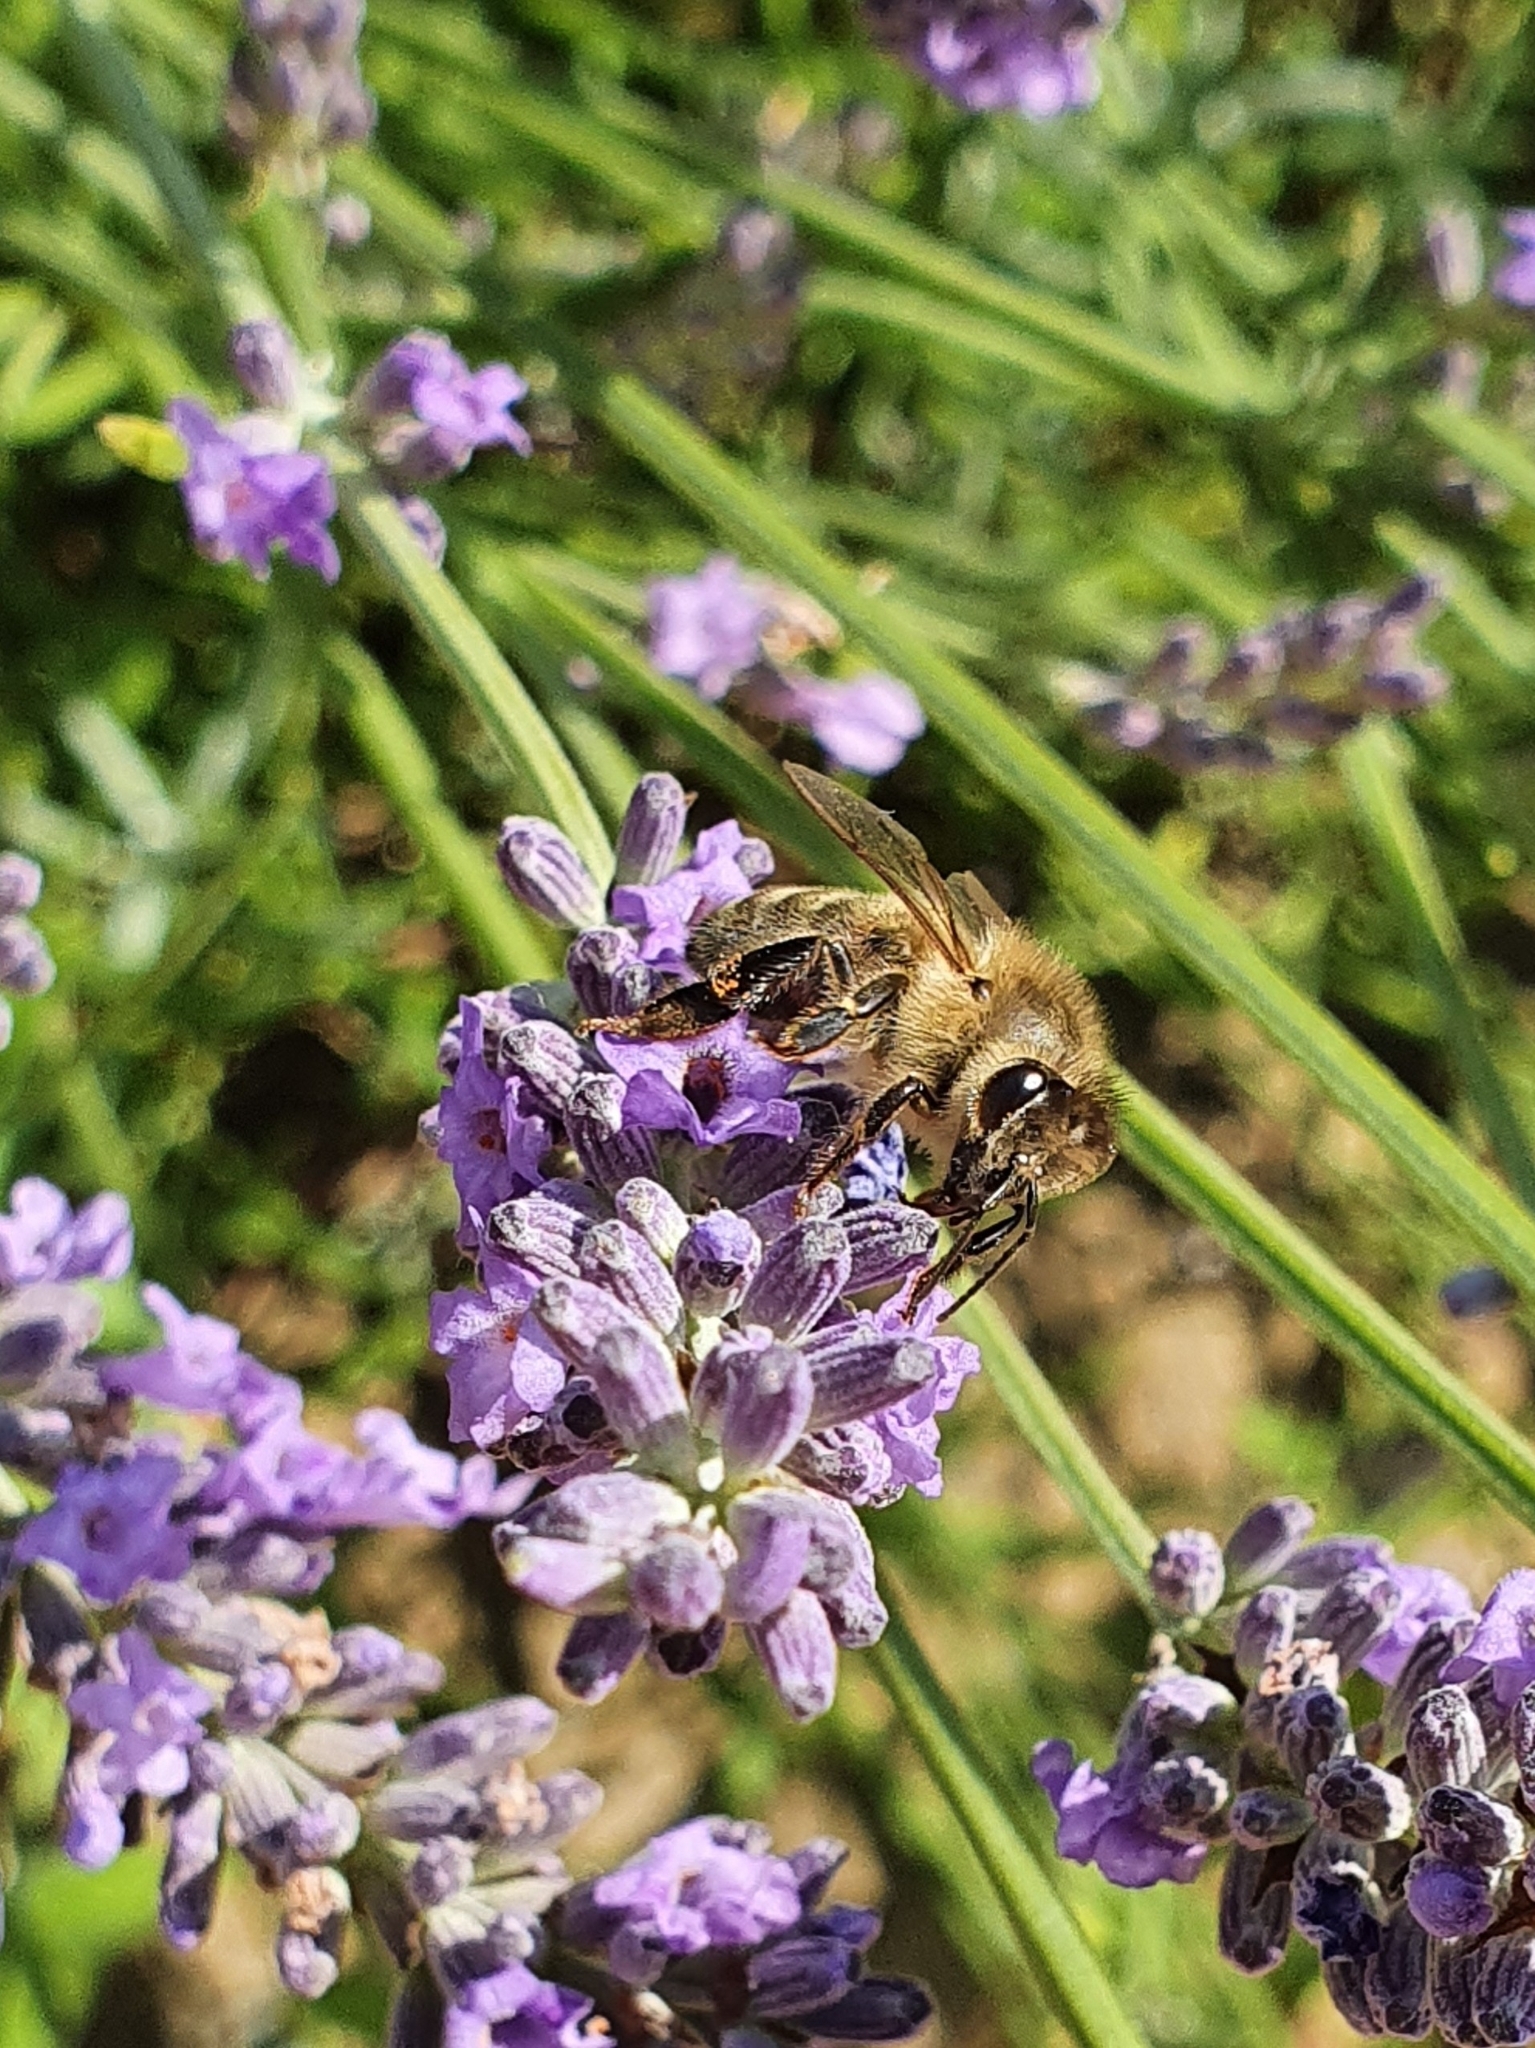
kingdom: Animalia
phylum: Arthropoda
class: Insecta
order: Hymenoptera
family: Apidae
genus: Apis
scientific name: Apis mellifera
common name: Honey bee
